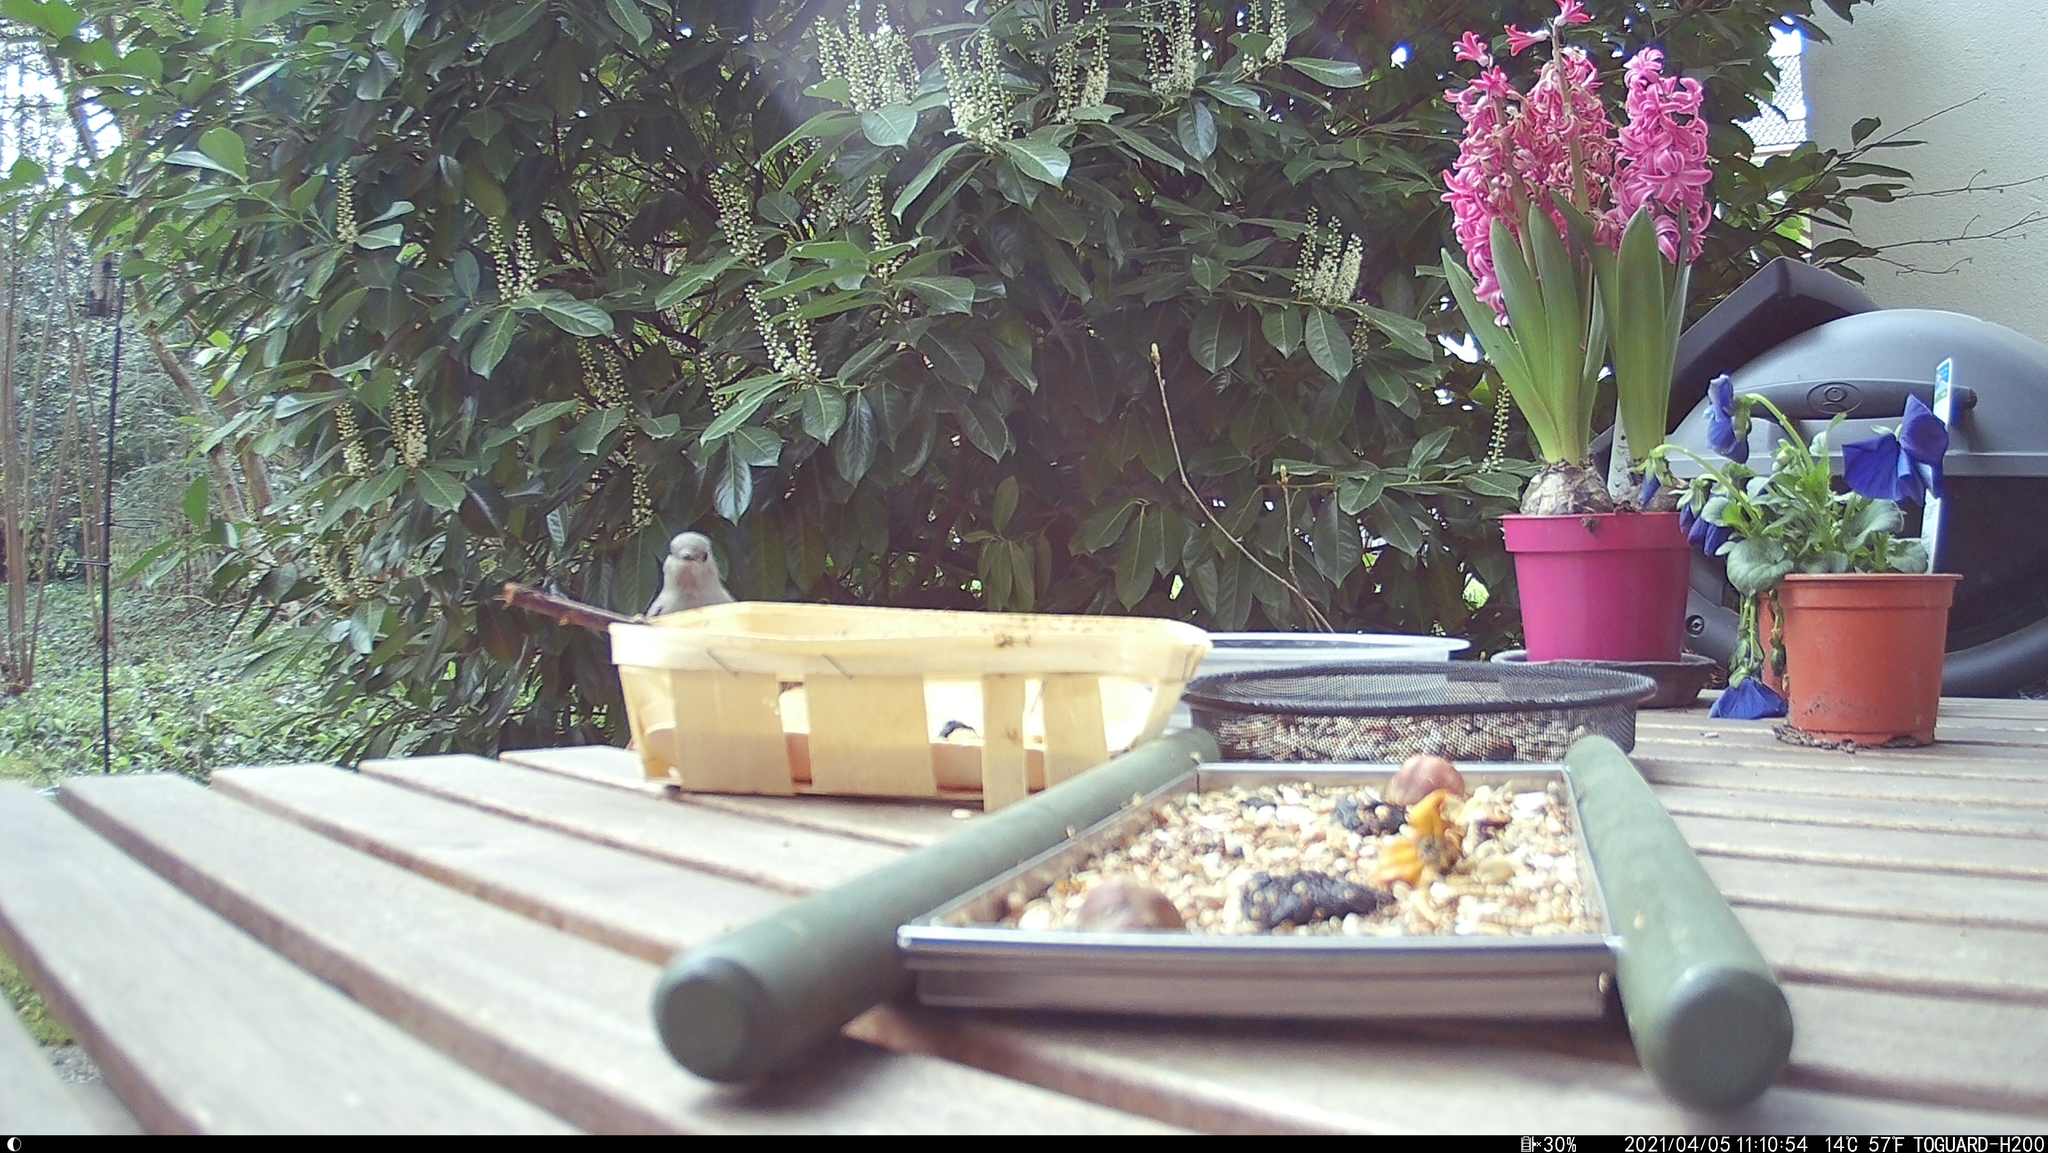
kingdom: Animalia
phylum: Chordata
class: Aves
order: Passeriformes
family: Muscicapidae
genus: Phoenicurus
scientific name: Phoenicurus ochruros
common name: Black redstart
